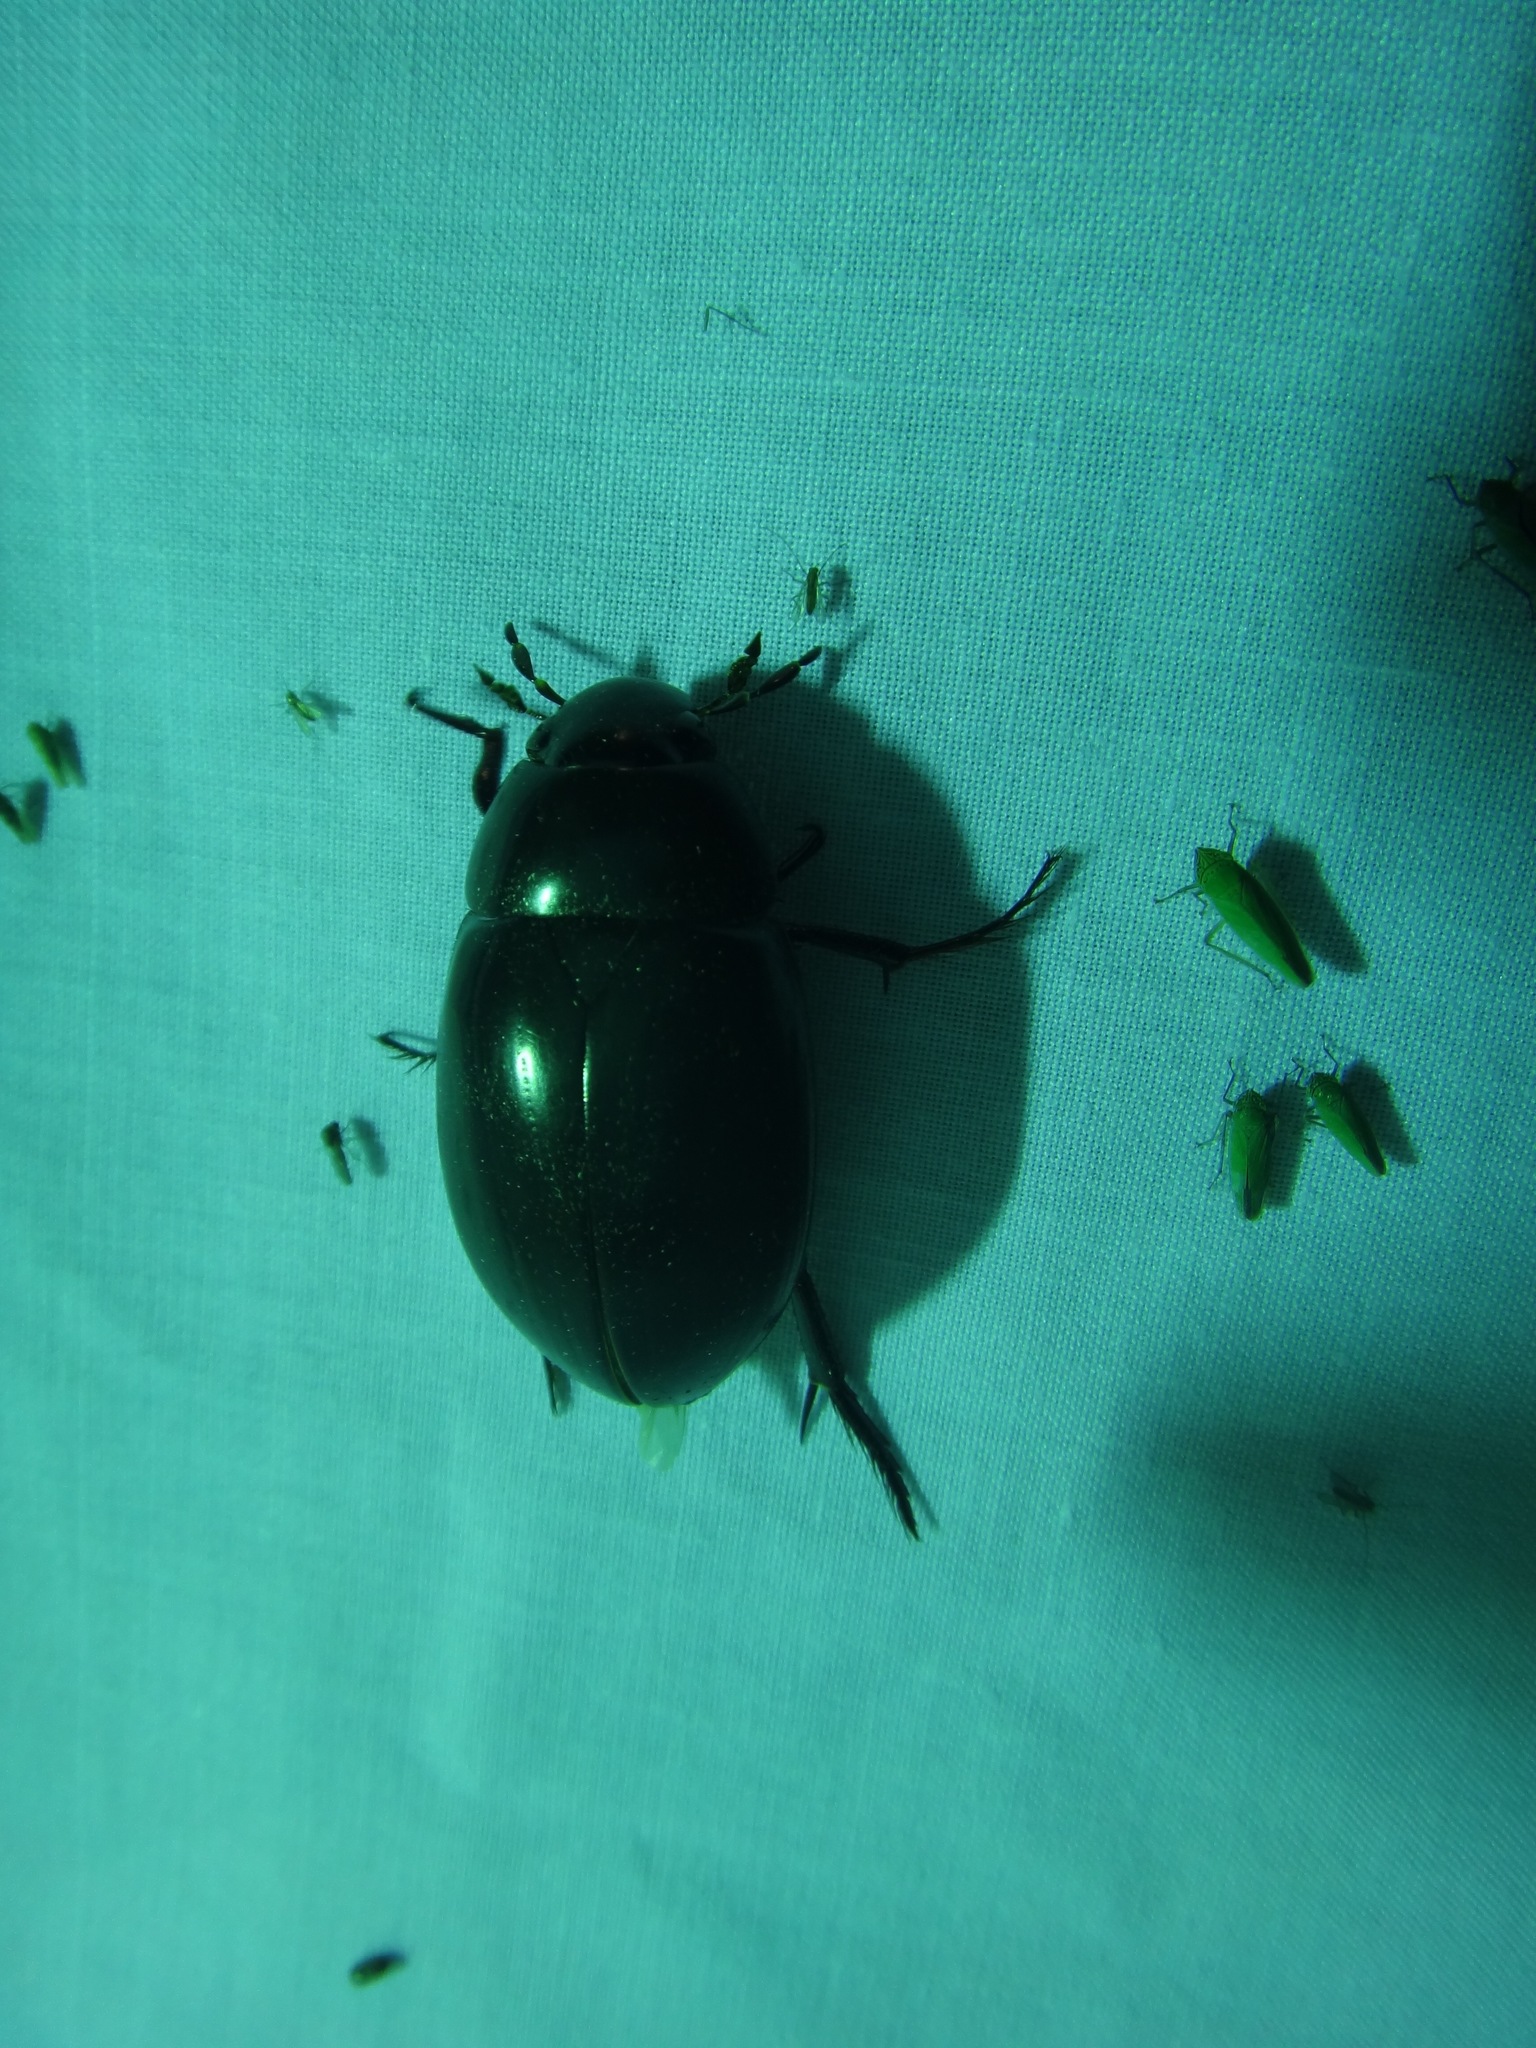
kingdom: Animalia
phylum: Arthropoda
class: Insecta
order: Coleoptera
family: Hydrophilidae
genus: Hydrophilus
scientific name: Hydrophilus ovatus
